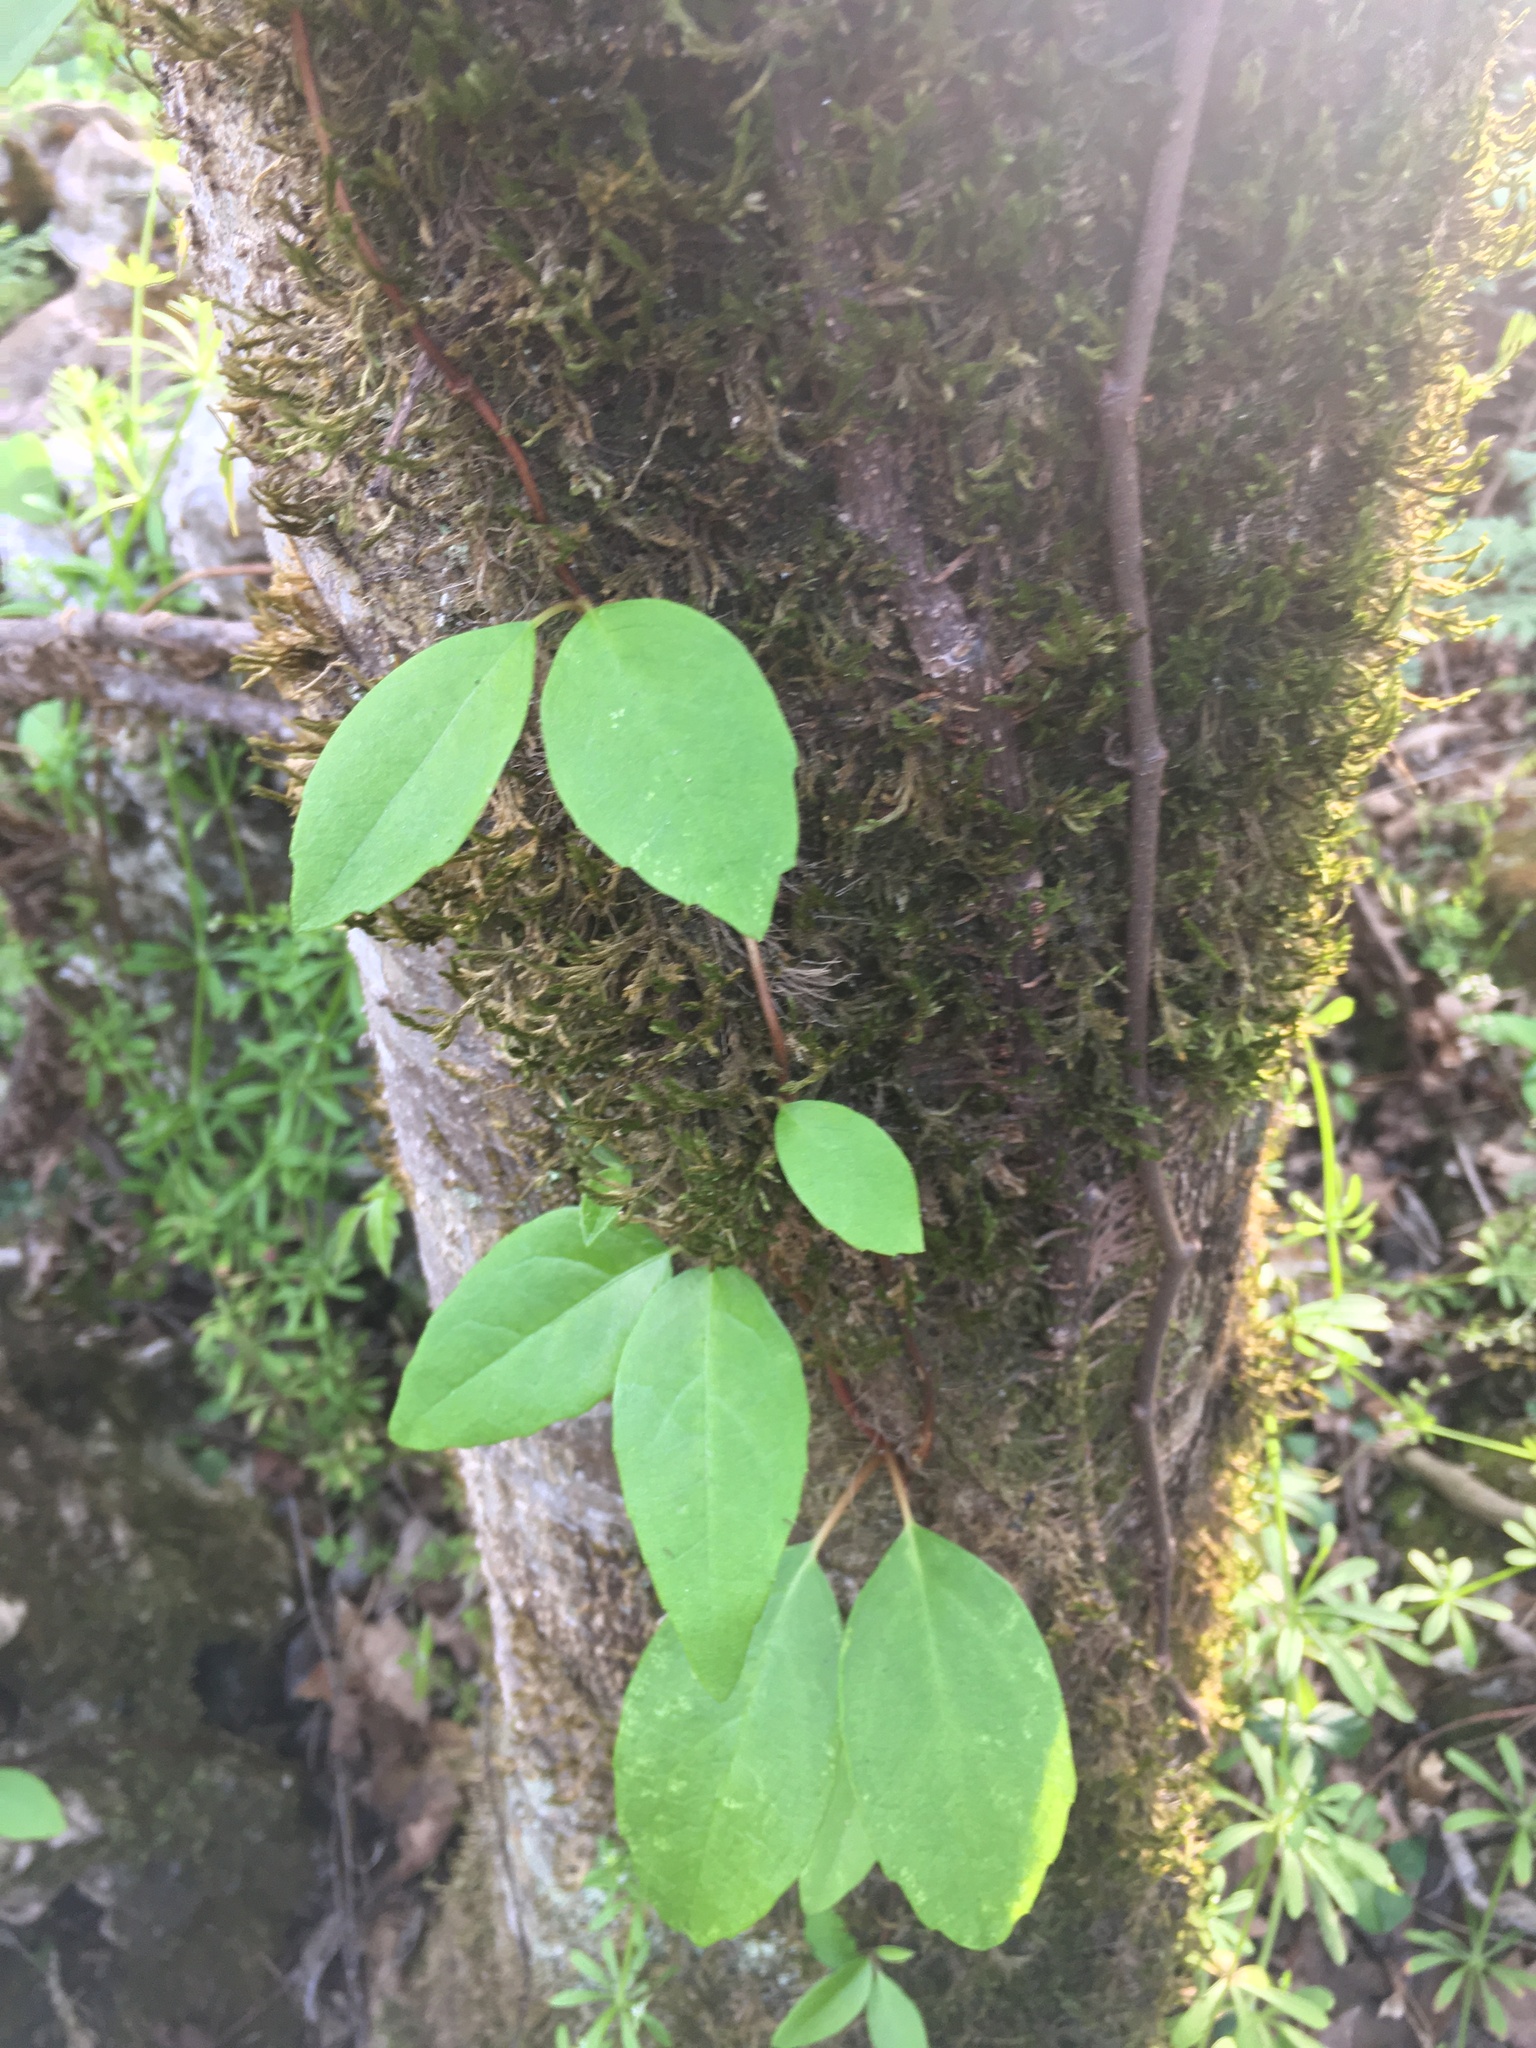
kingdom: Plantae
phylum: Tracheophyta
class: Magnoliopsida
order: Cornales
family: Hydrangeaceae
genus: Hydrangea
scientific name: Hydrangea barbara
